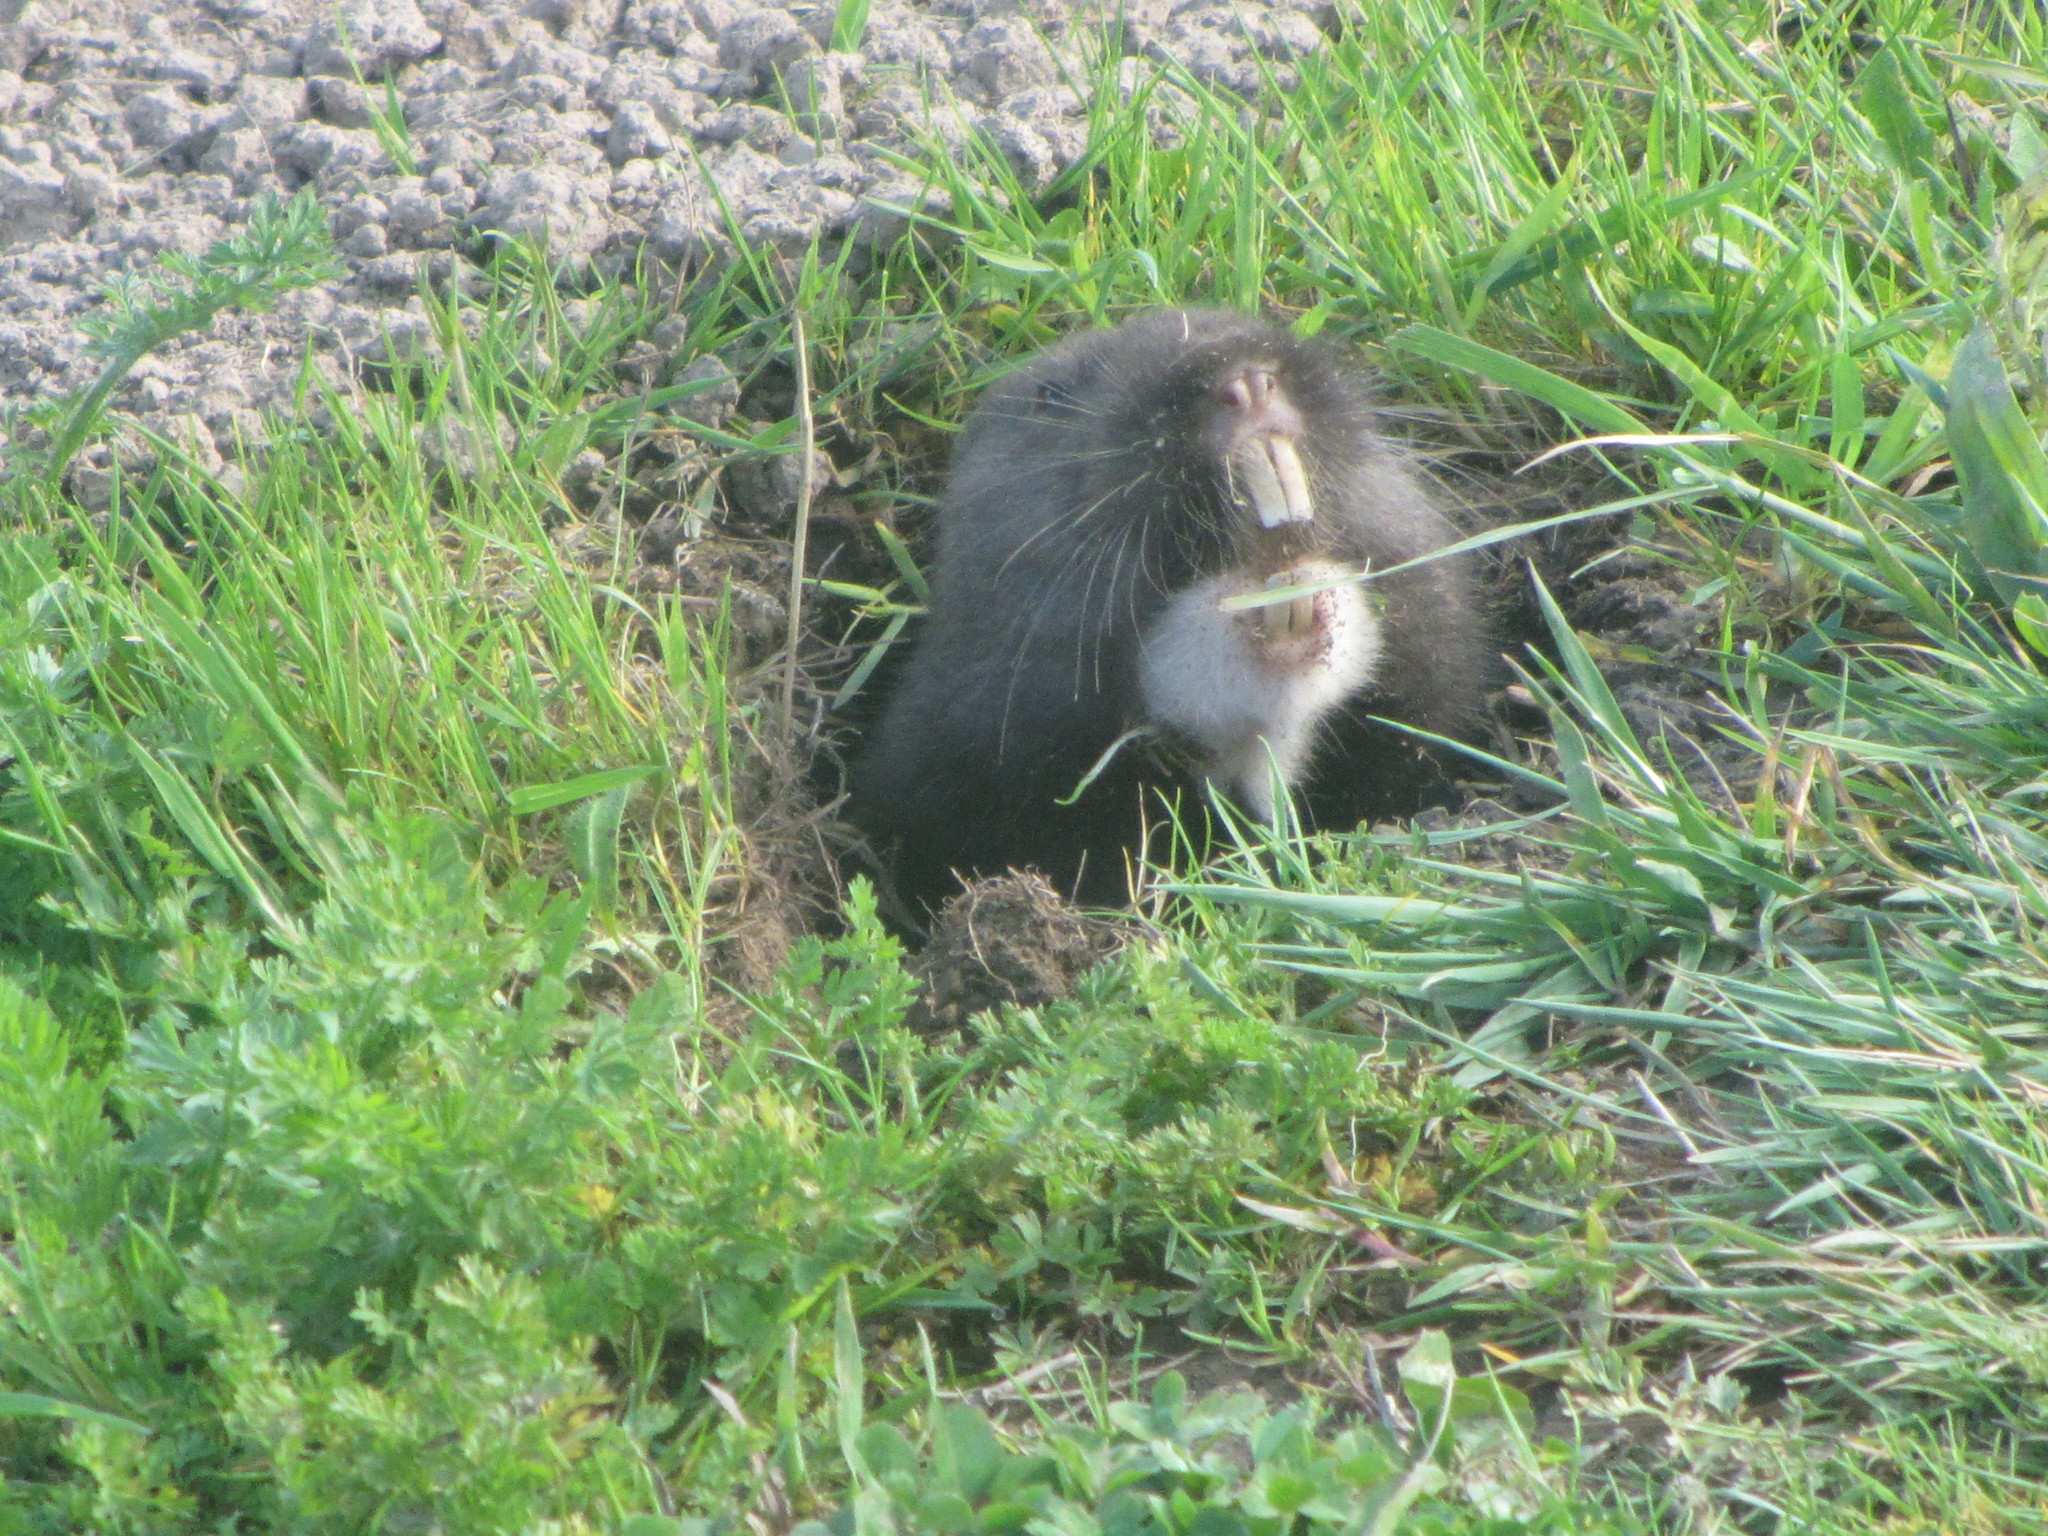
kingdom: Animalia
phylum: Chordata
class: Mammalia
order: Rodentia
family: Geomyidae
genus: Thomomys
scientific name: Thomomys bulbivorus
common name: Camas pocket gopher
